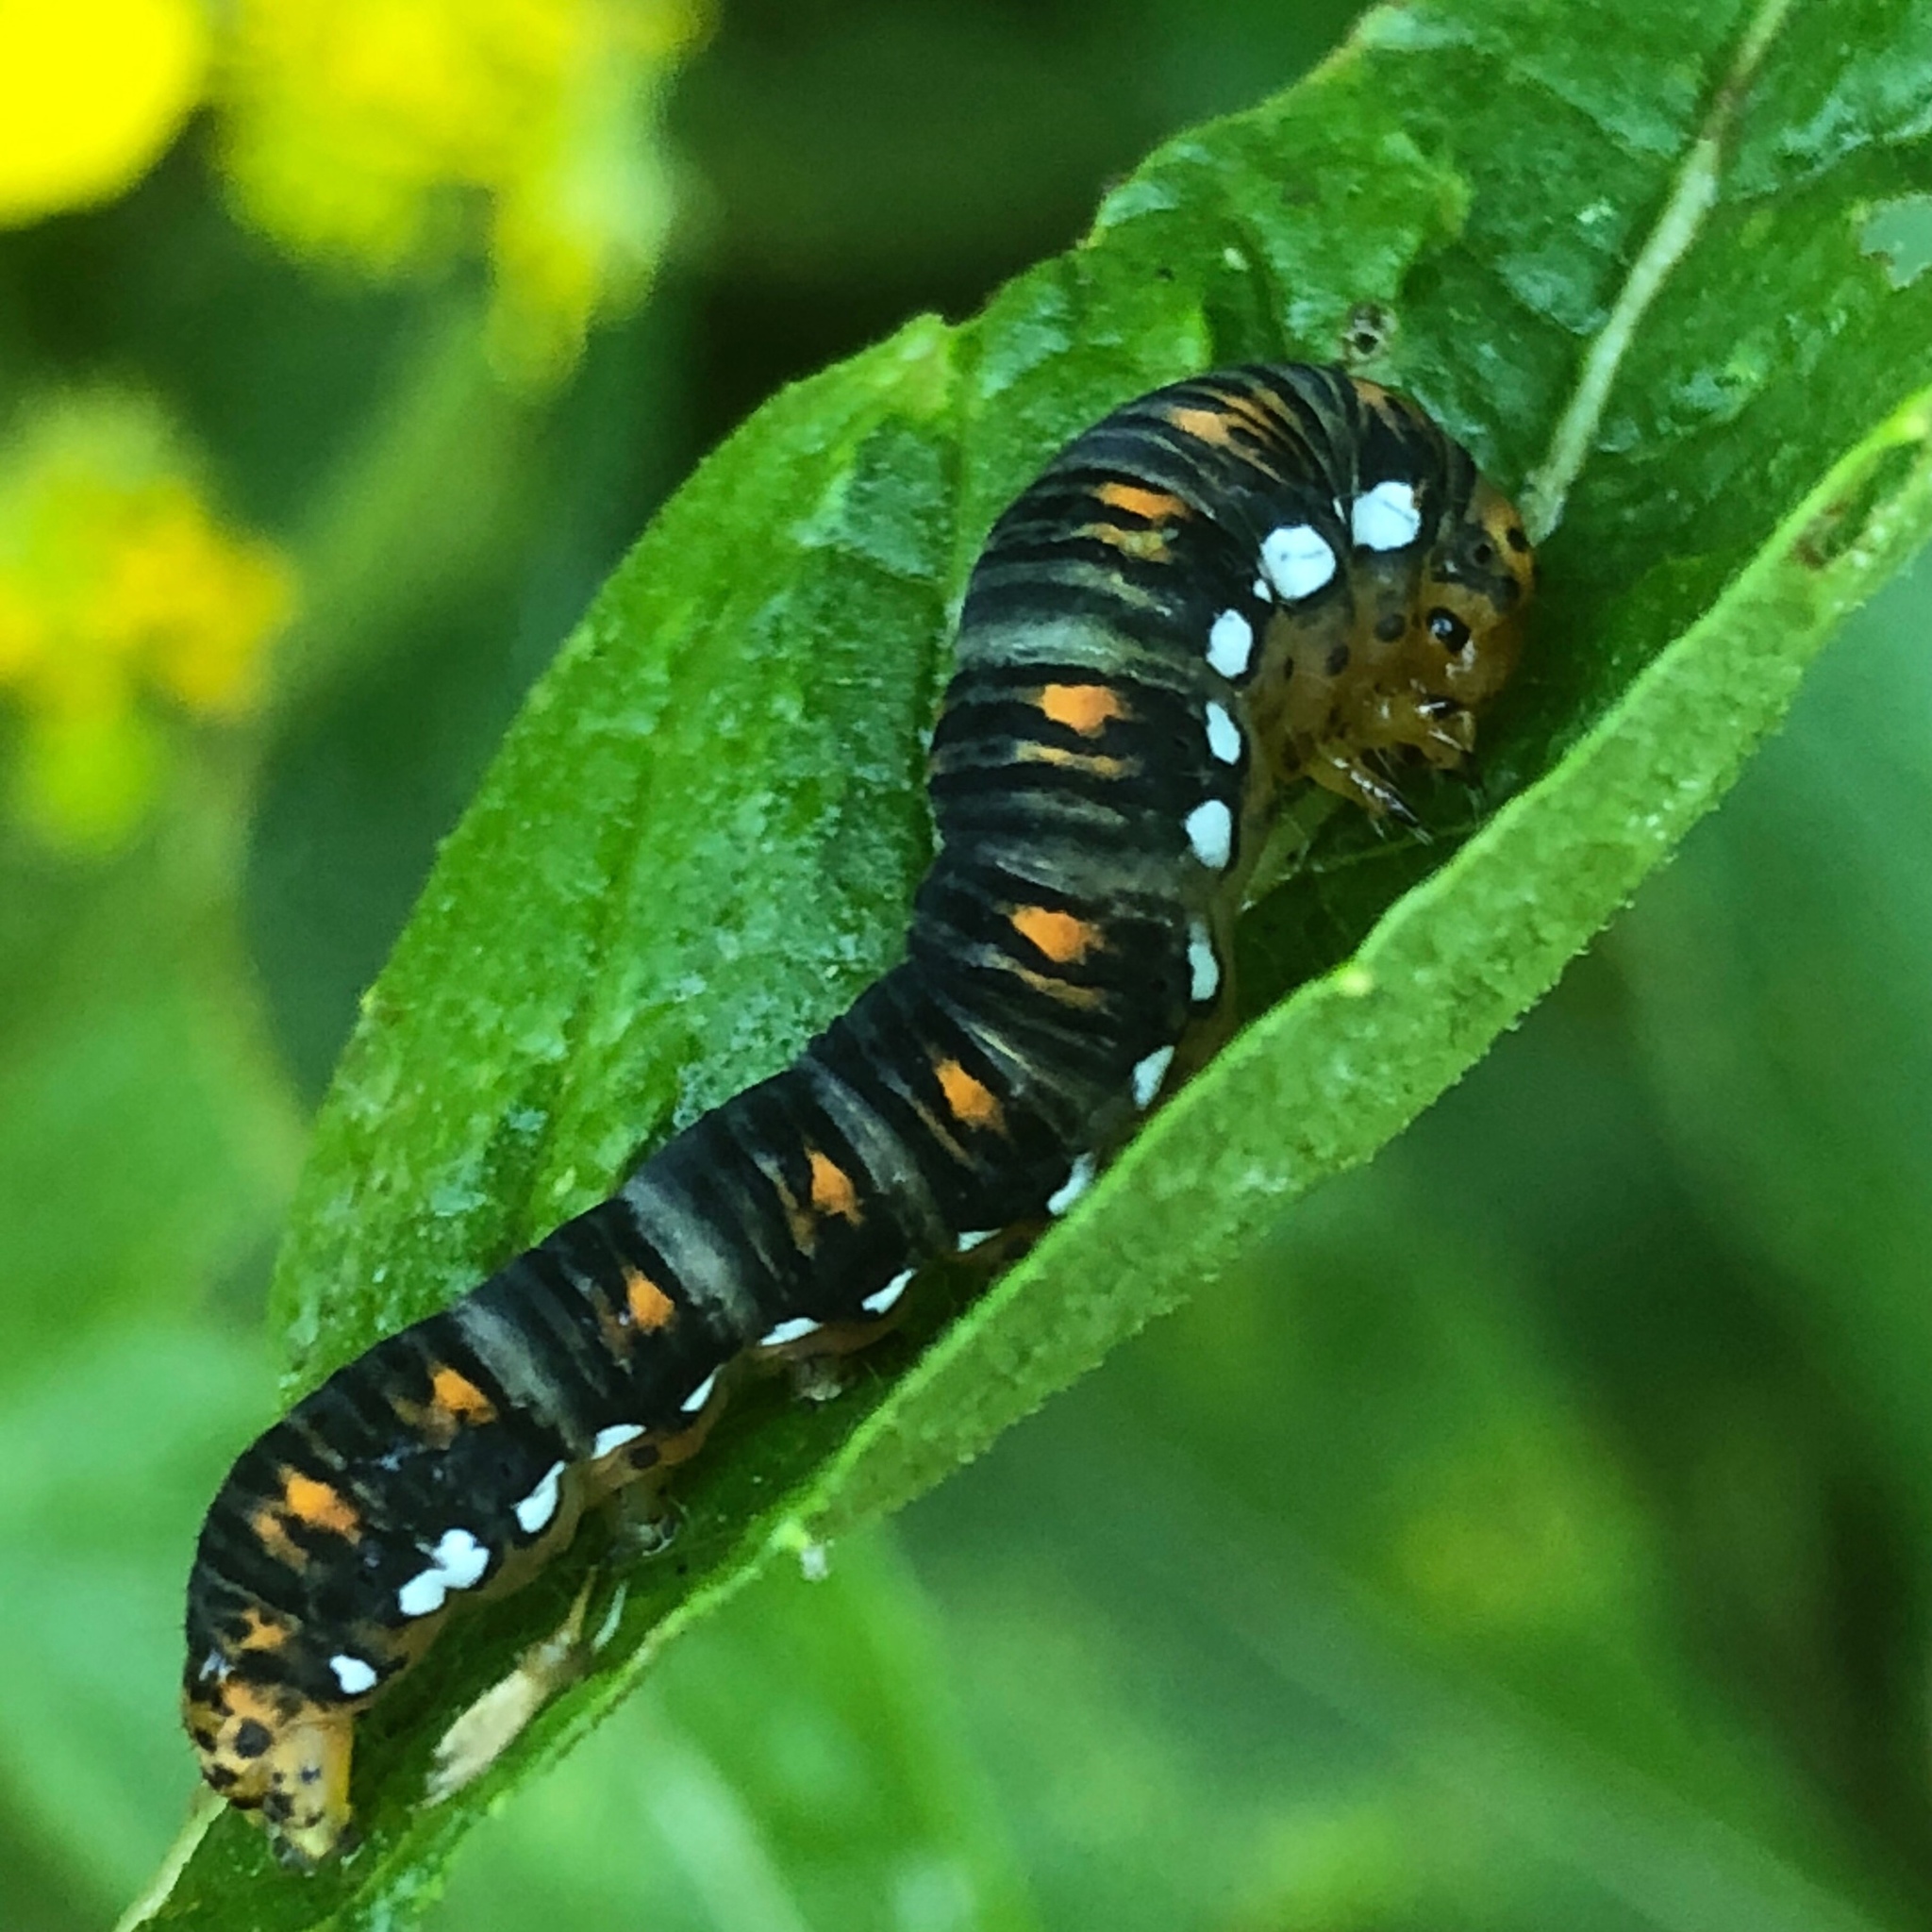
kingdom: Animalia
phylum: Arthropoda
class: Insecta
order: Lepidoptera
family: Noctuidae
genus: Basilodes
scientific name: Basilodes pepita
